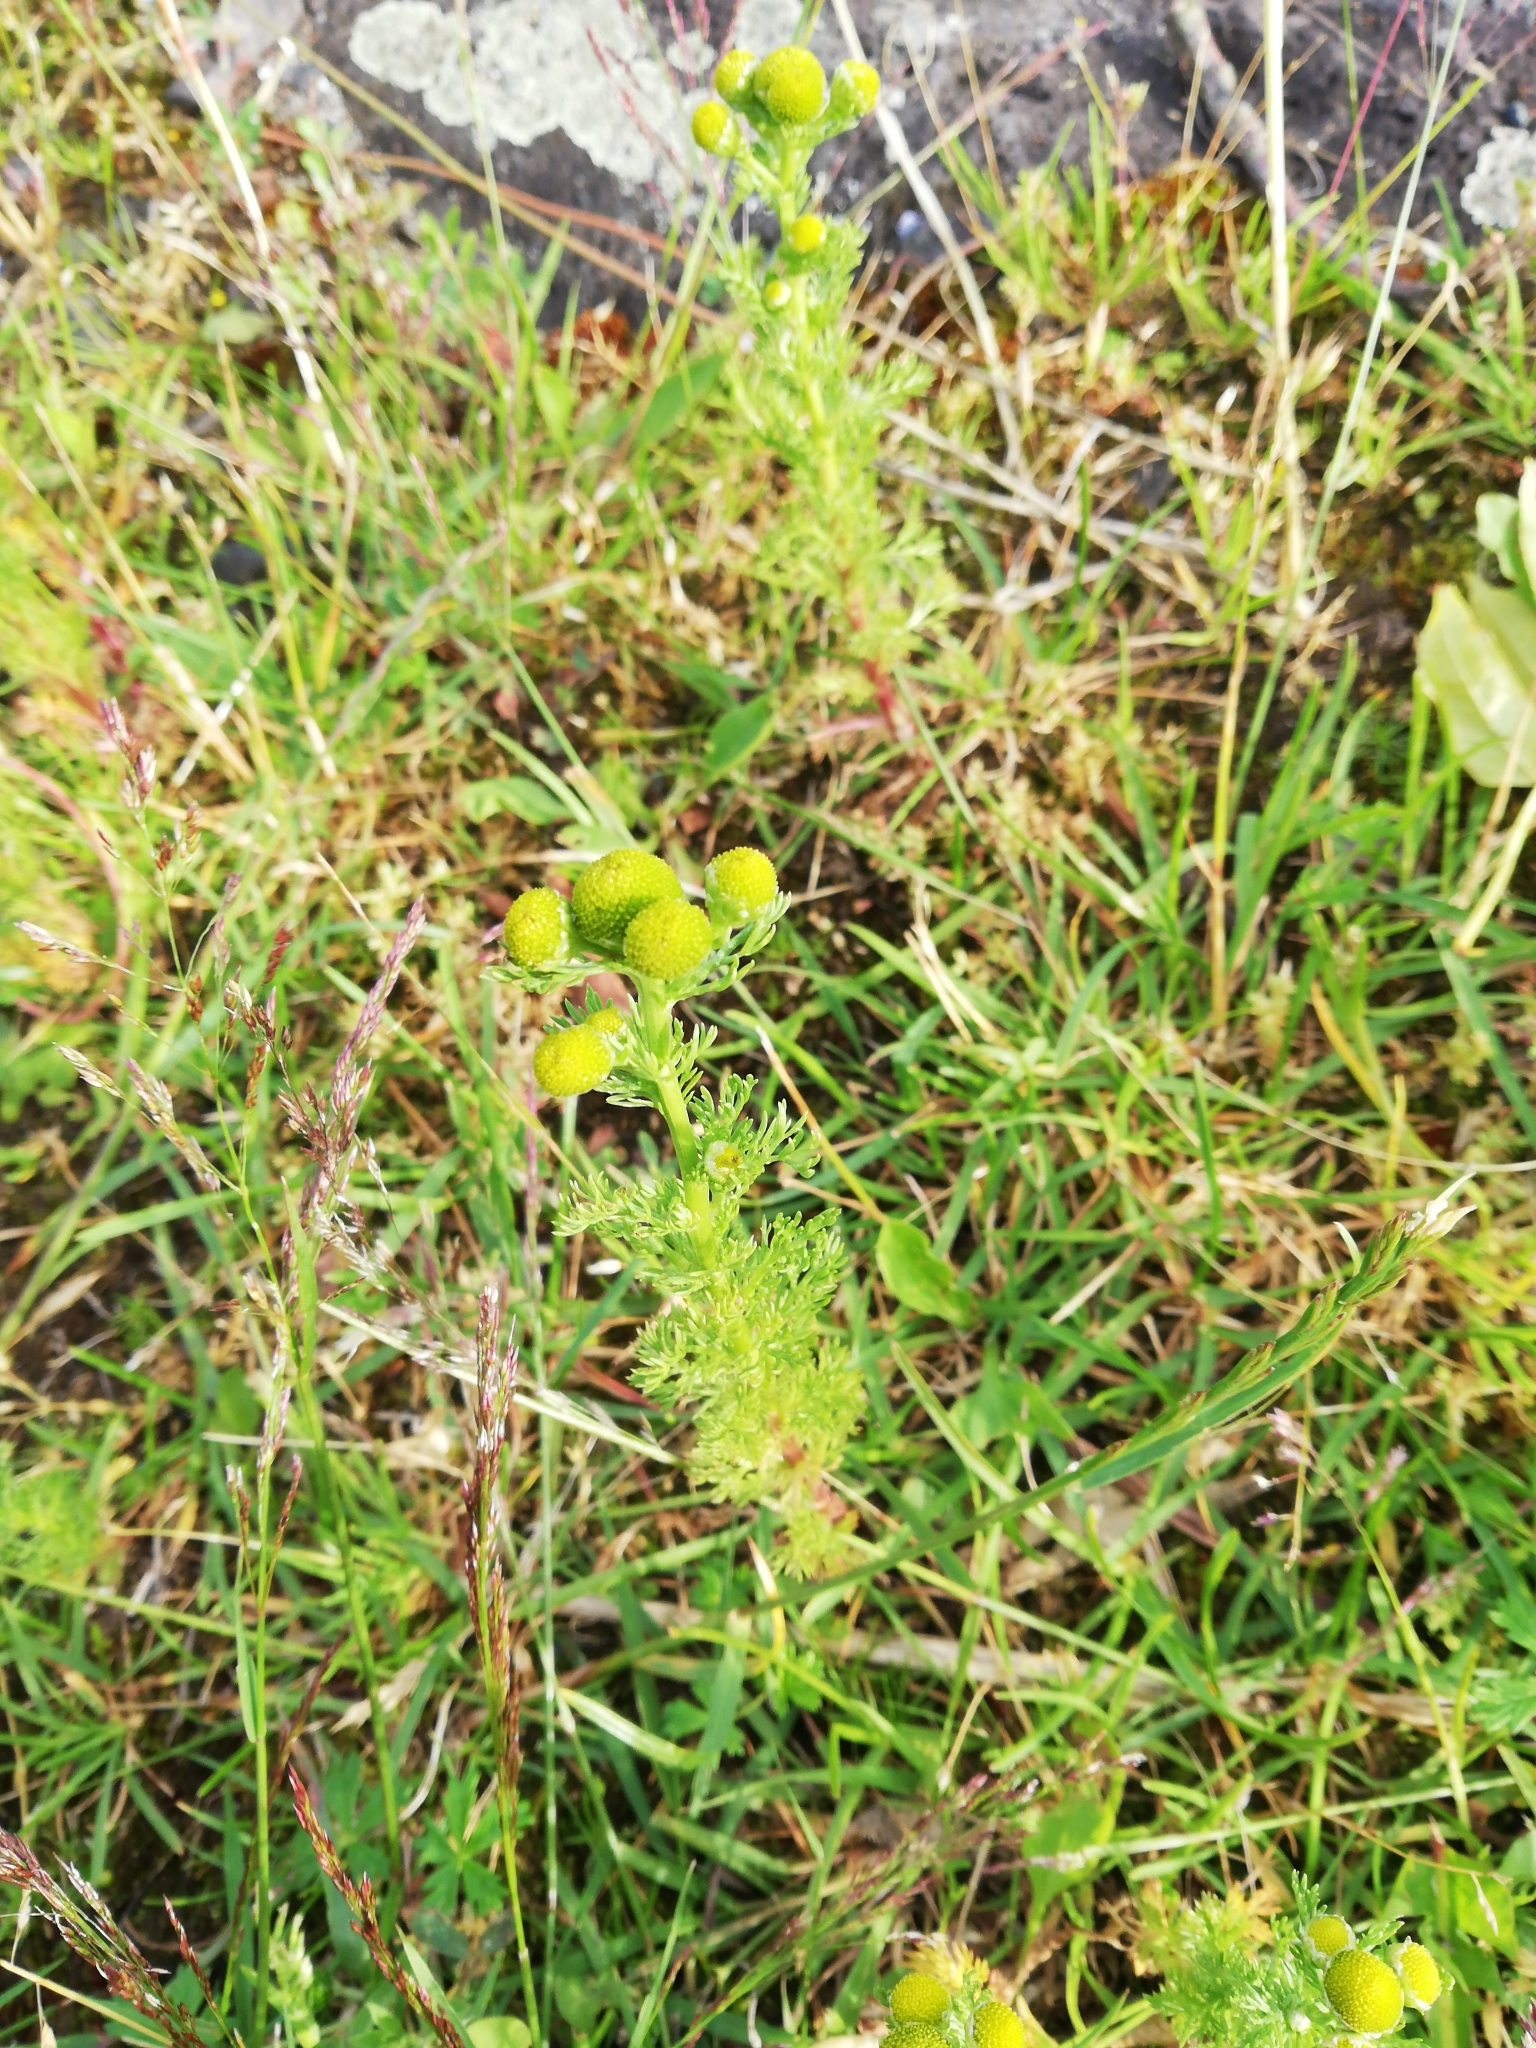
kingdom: Plantae
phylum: Tracheophyta
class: Magnoliopsida
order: Asterales
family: Asteraceae
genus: Matricaria
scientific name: Matricaria discoidea
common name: Disc mayweed
